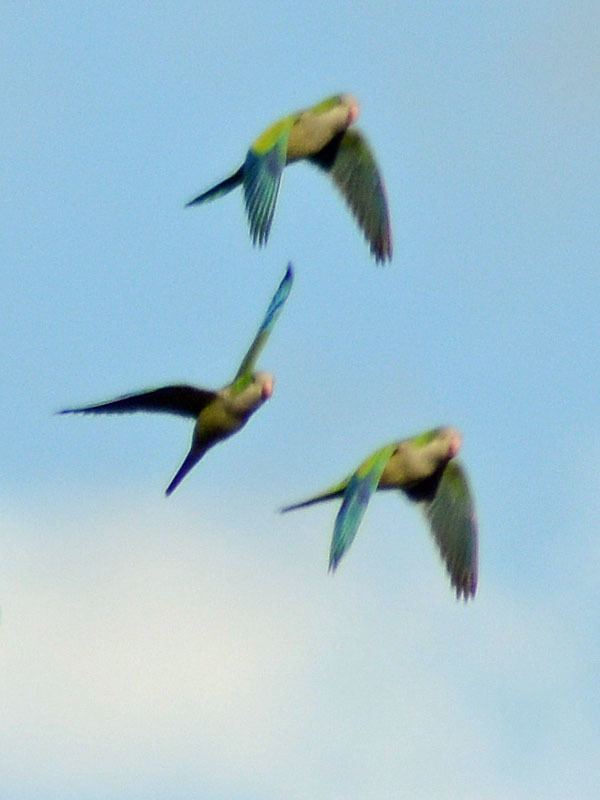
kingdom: Animalia
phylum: Chordata
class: Aves
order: Psittaciformes
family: Psittacidae
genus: Myiopsitta
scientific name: Myiopsitta monachus
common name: Monk parakeet
